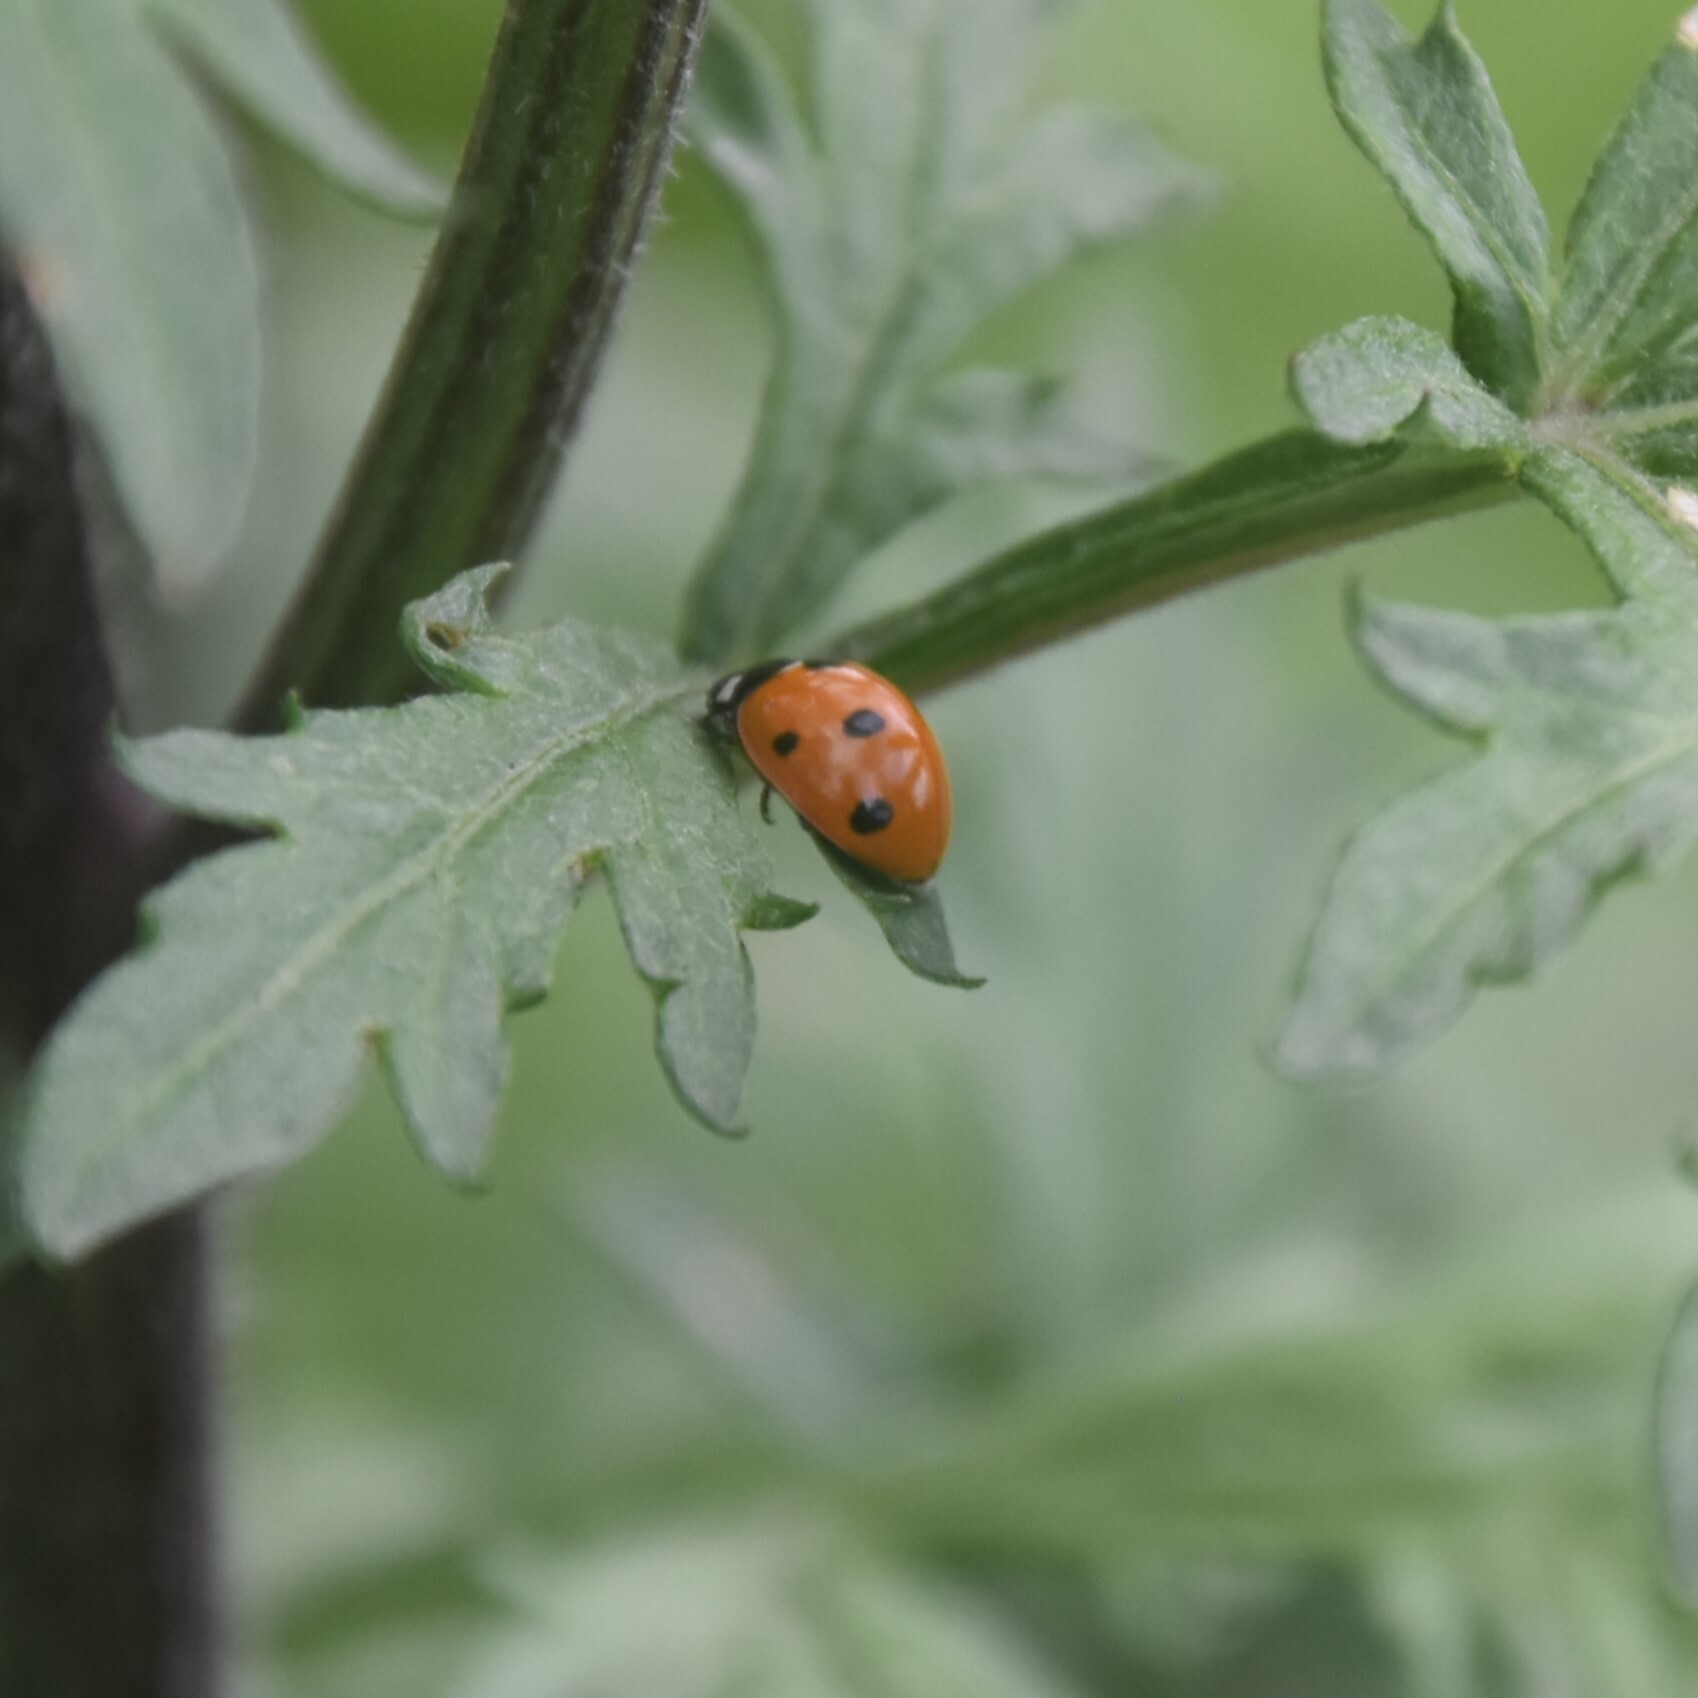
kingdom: Animalia
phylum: Arthropoda
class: Insecta
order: Coleoptera
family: Coccinellidae
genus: Coccinella
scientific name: Coccinella septempunctata
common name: Sevenspotted lady beetle
